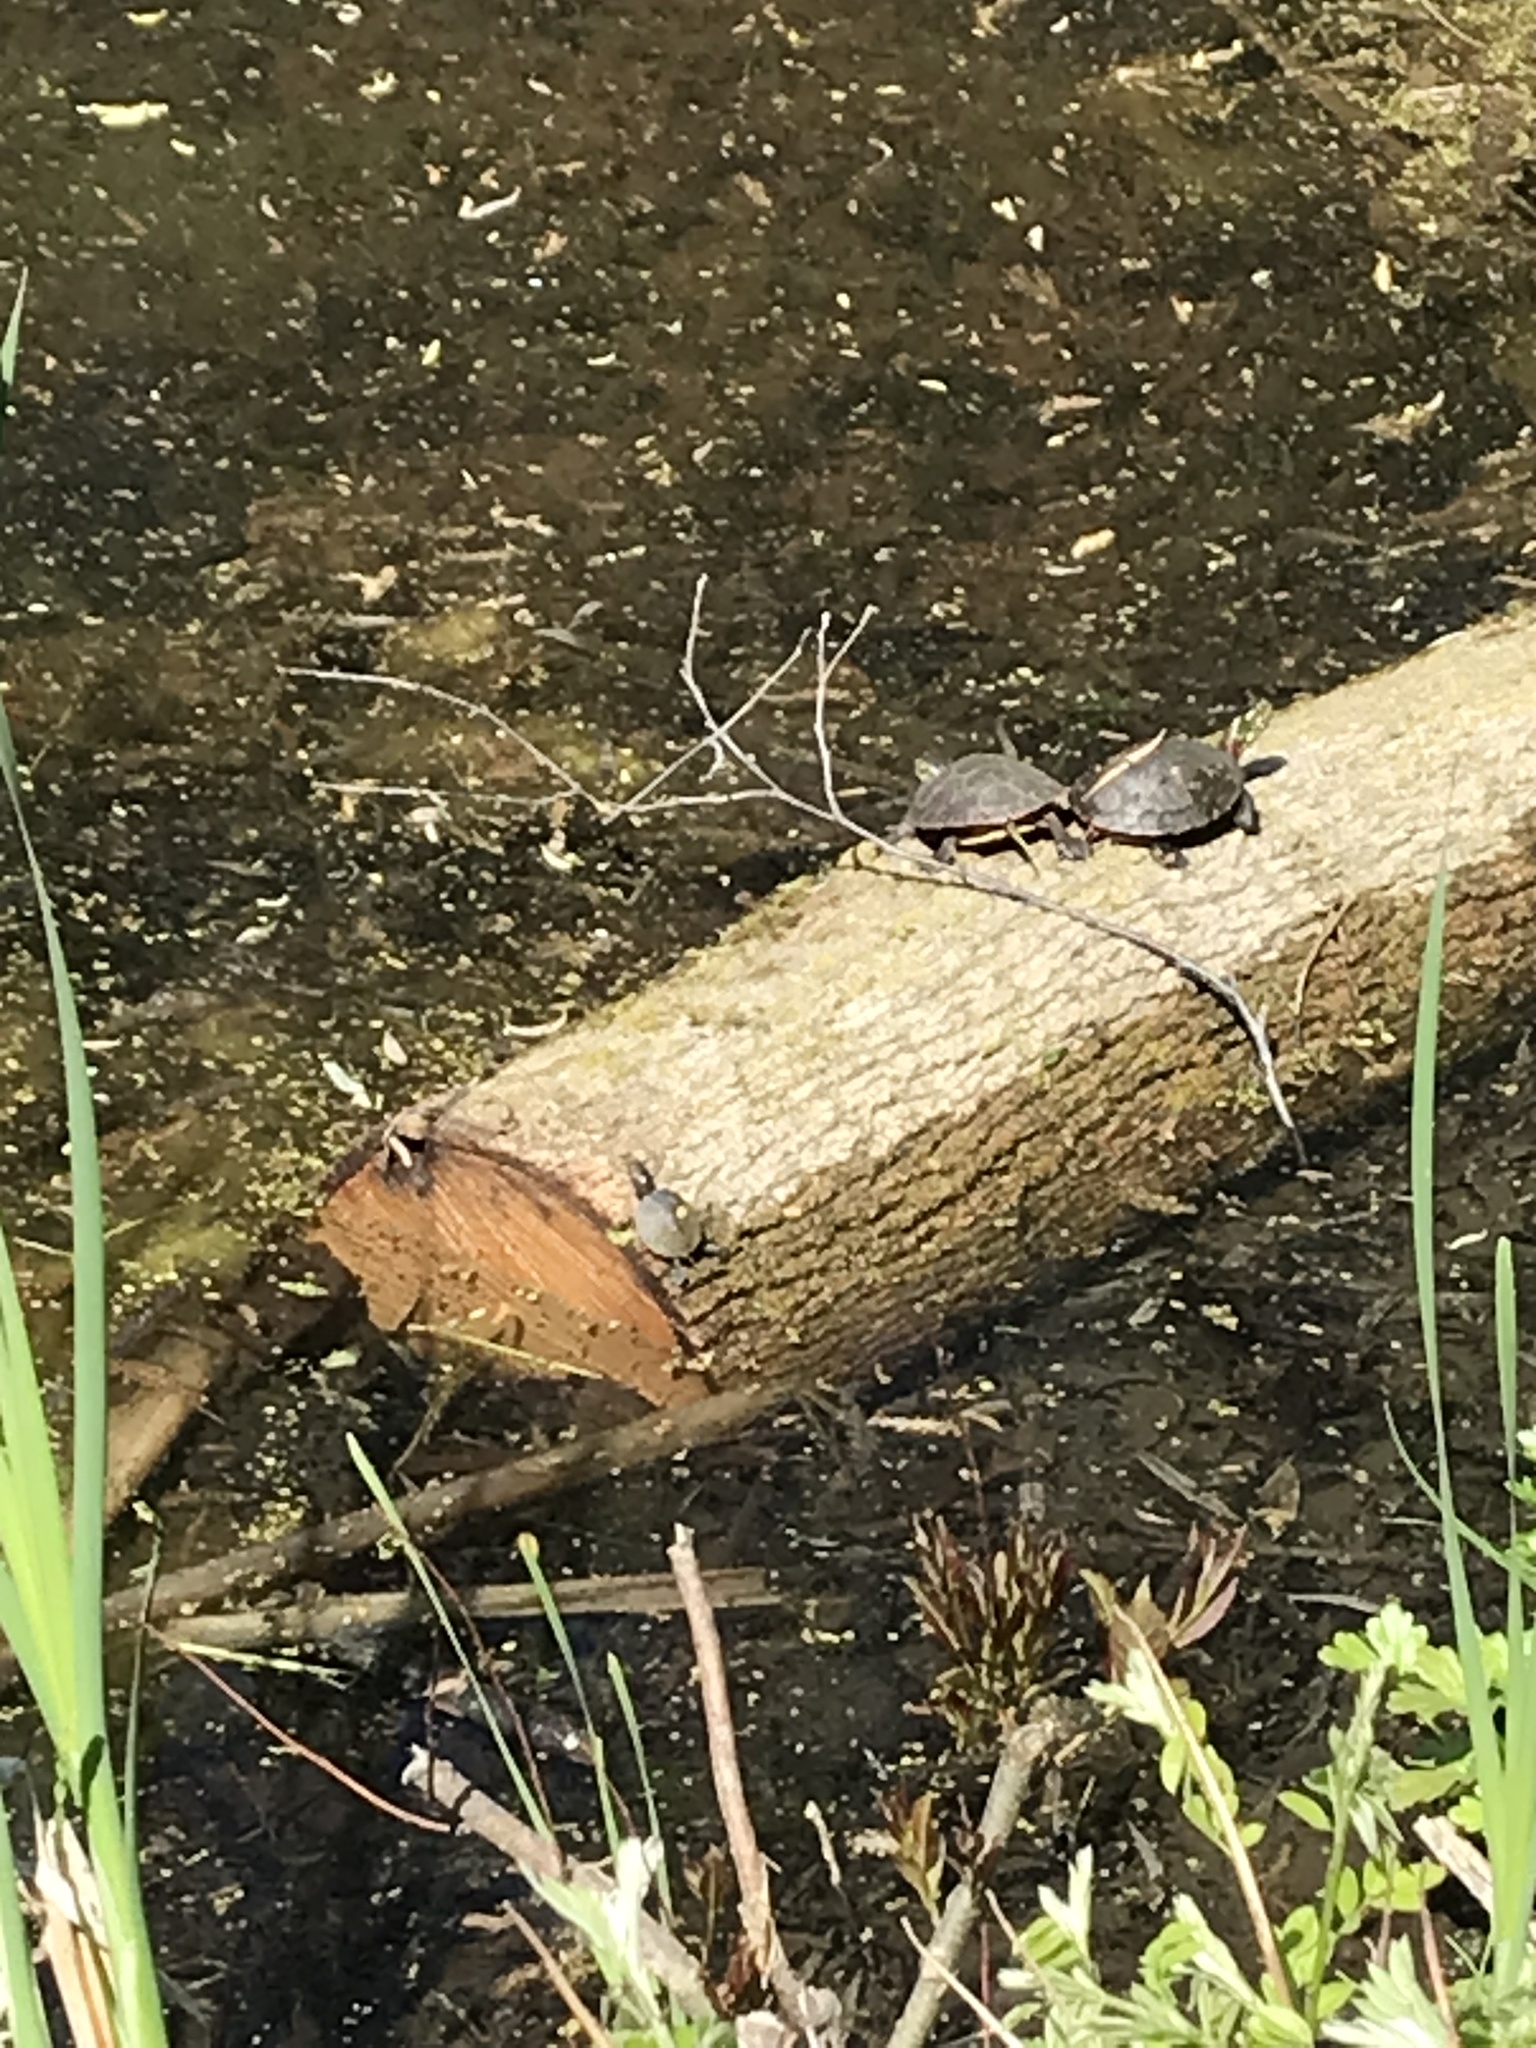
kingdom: Animalia
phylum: Chordata
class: Testudines
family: Emydidae
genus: Chrysemys
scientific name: Chrysemys picta
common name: Painted turtle
